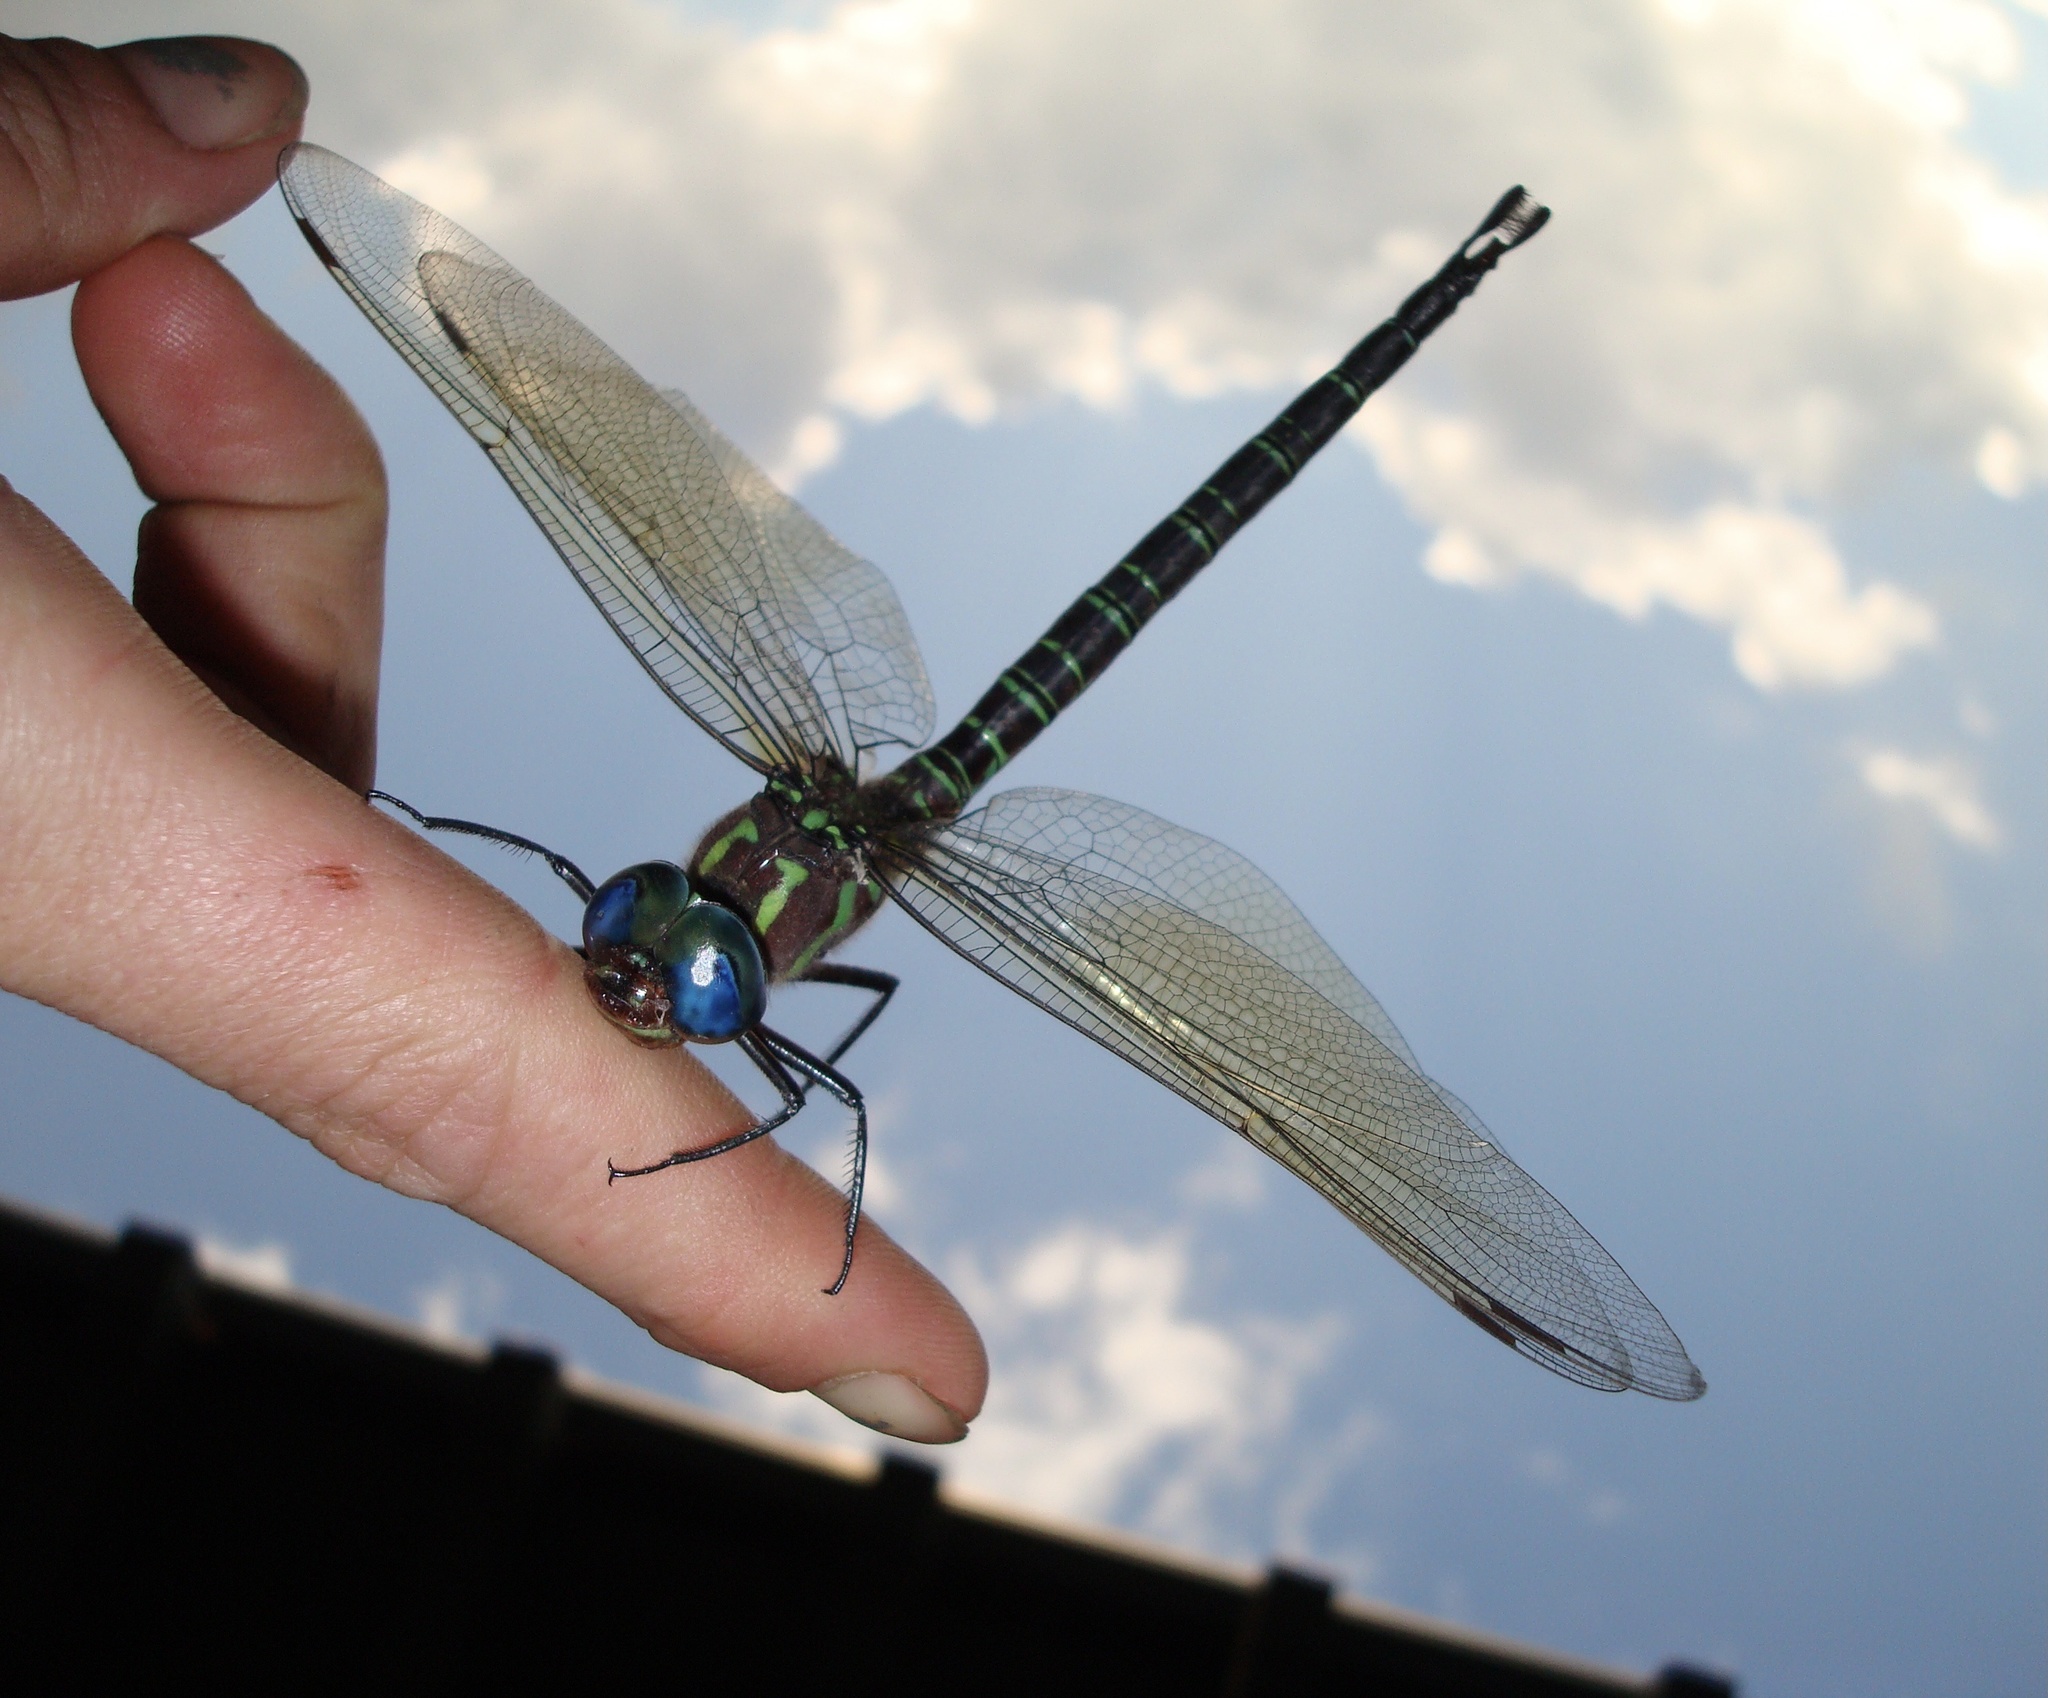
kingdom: Animalia
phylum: Arthropoda
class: Insecta
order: Odonata
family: Aeshnidae
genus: Epiaeschna
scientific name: Epiaeschna heros
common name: Swamp darner
